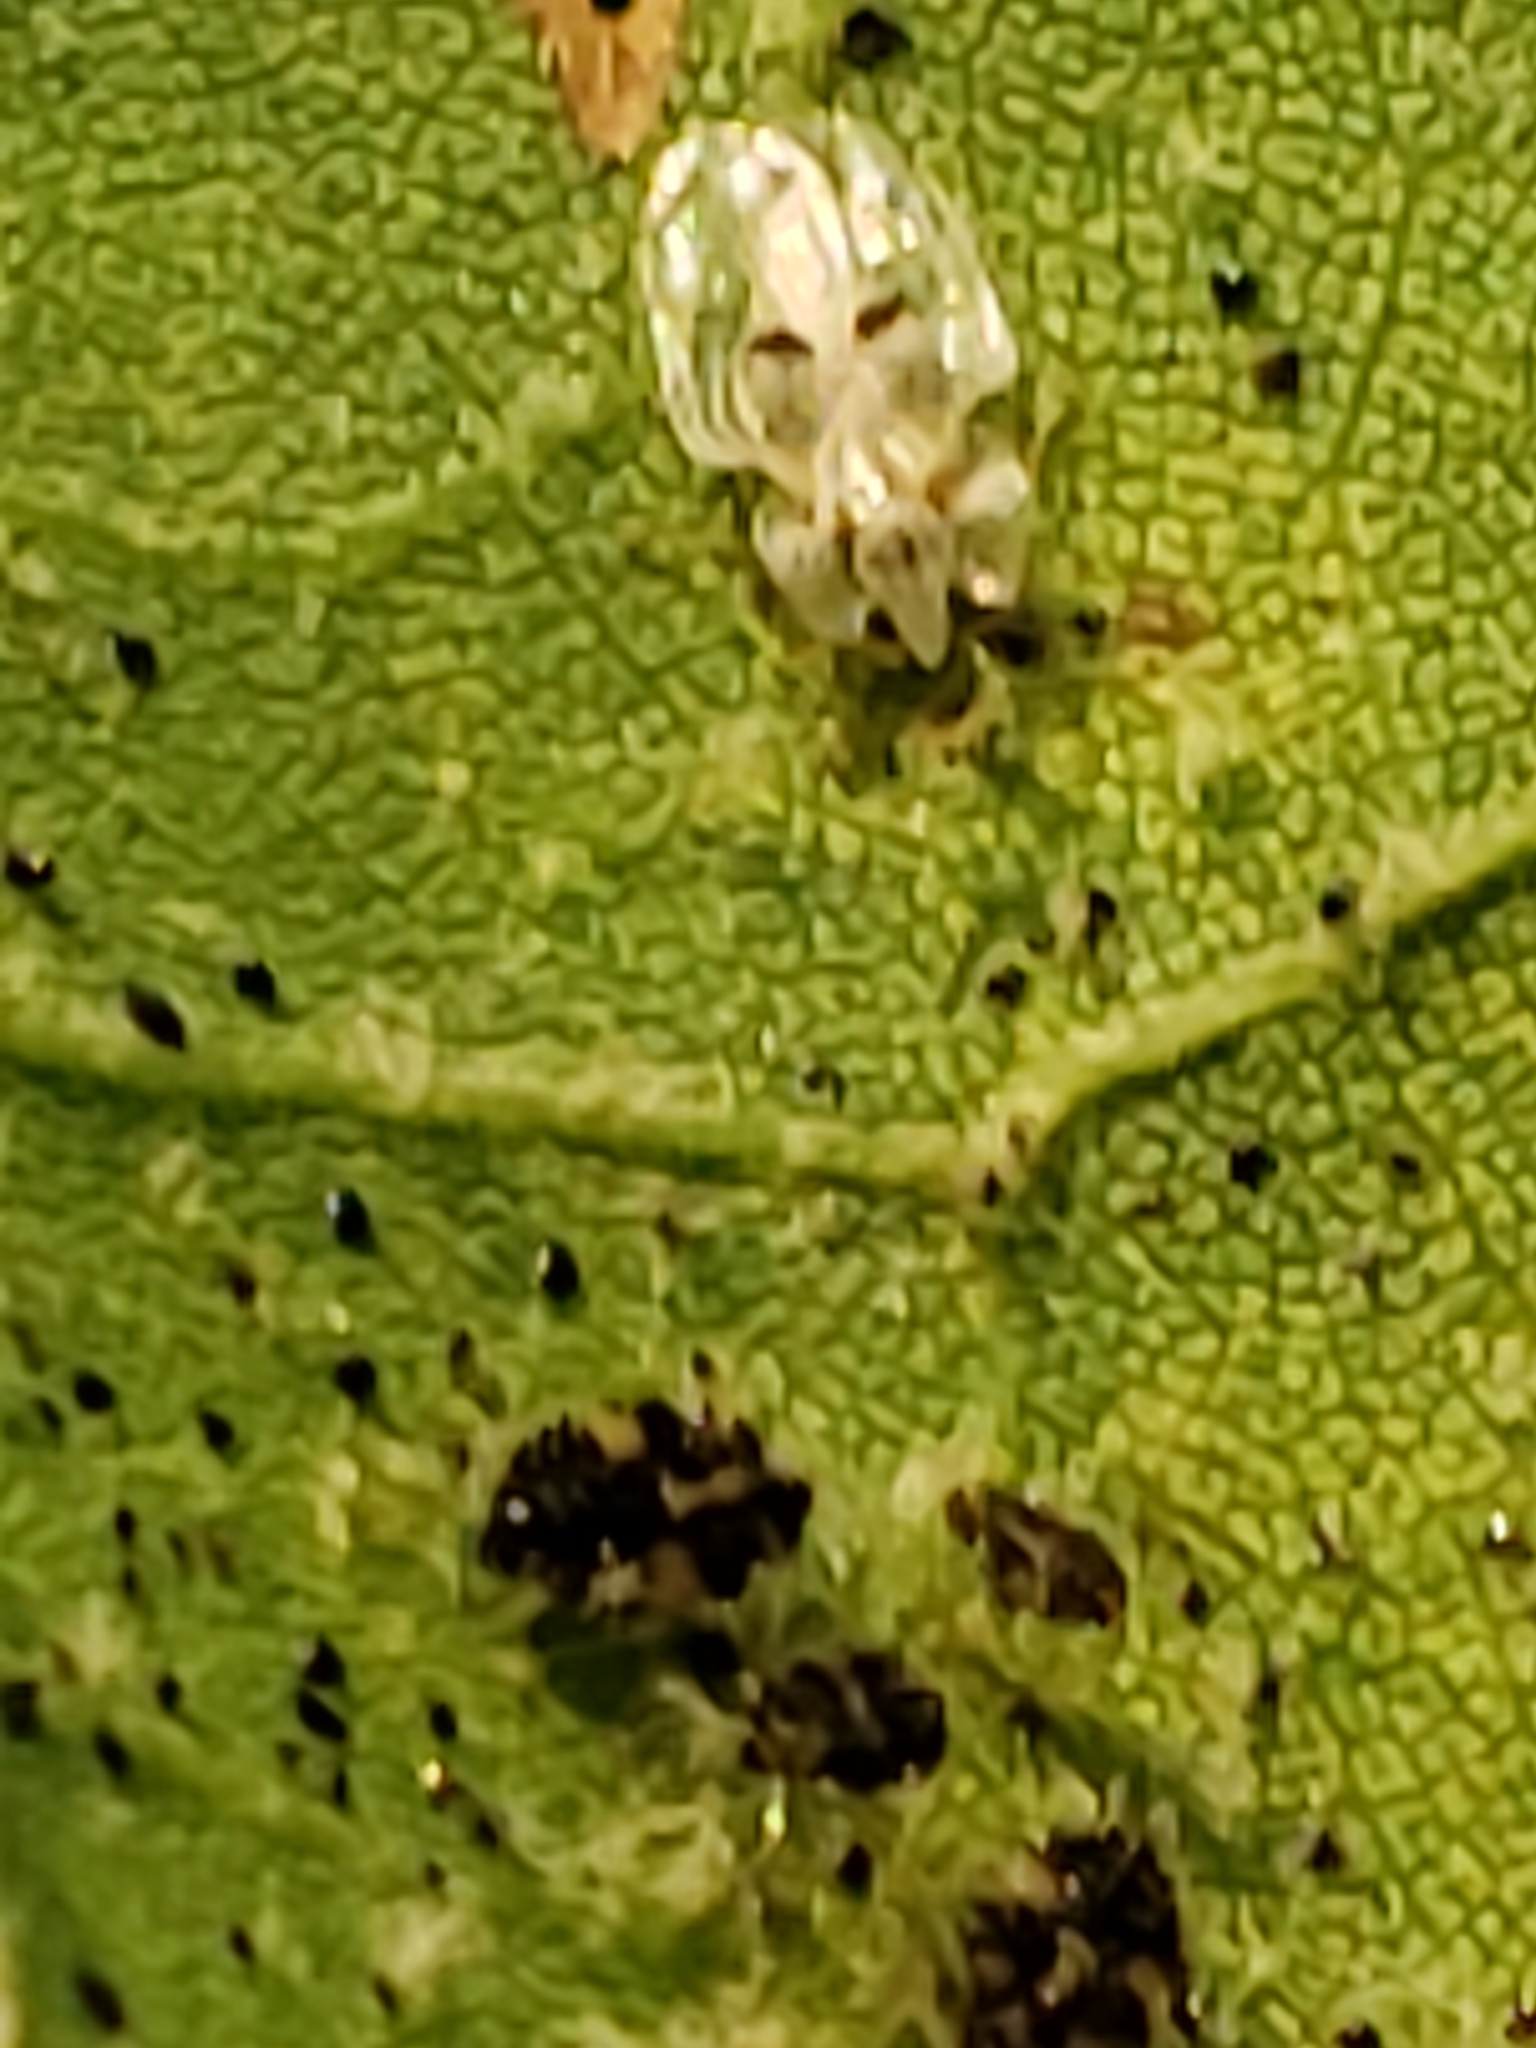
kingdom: Animalia
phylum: Arthropoda
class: Insecta
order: Hemiptera
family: Tingidae
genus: Corythucha
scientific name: Corythucha ciliata
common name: Sycamore lace bug
